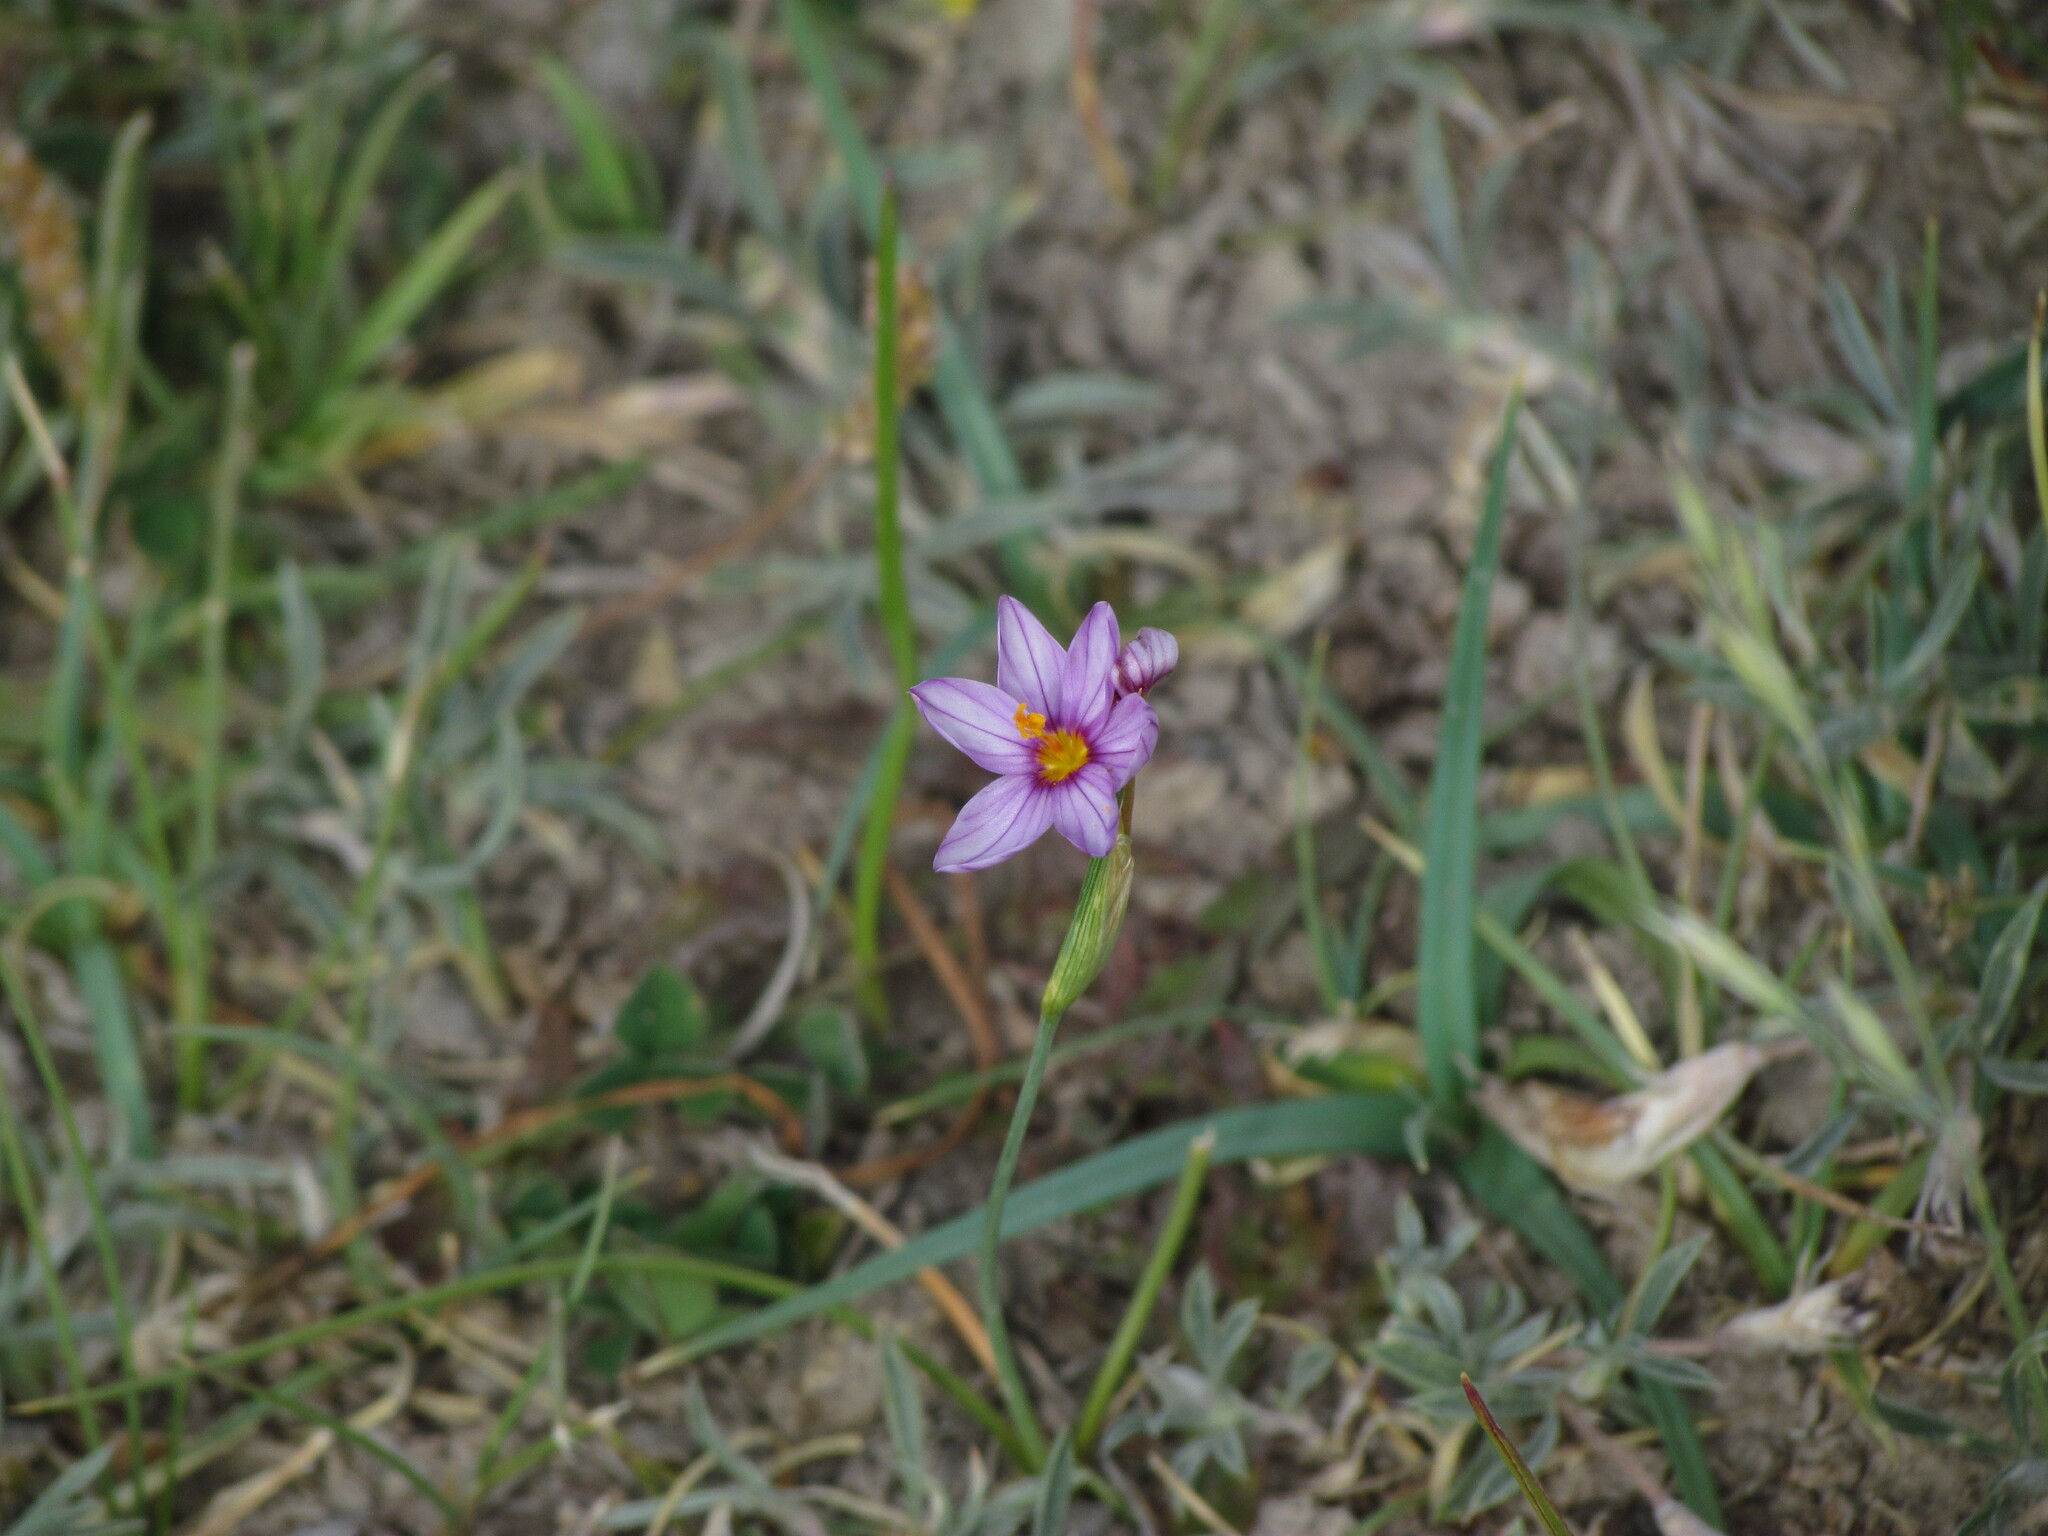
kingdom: Plantae
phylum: Tracheophyta
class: Liliopsida
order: Asparagales
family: Iridaceae
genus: Olsynium
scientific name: Olsynium junceum
